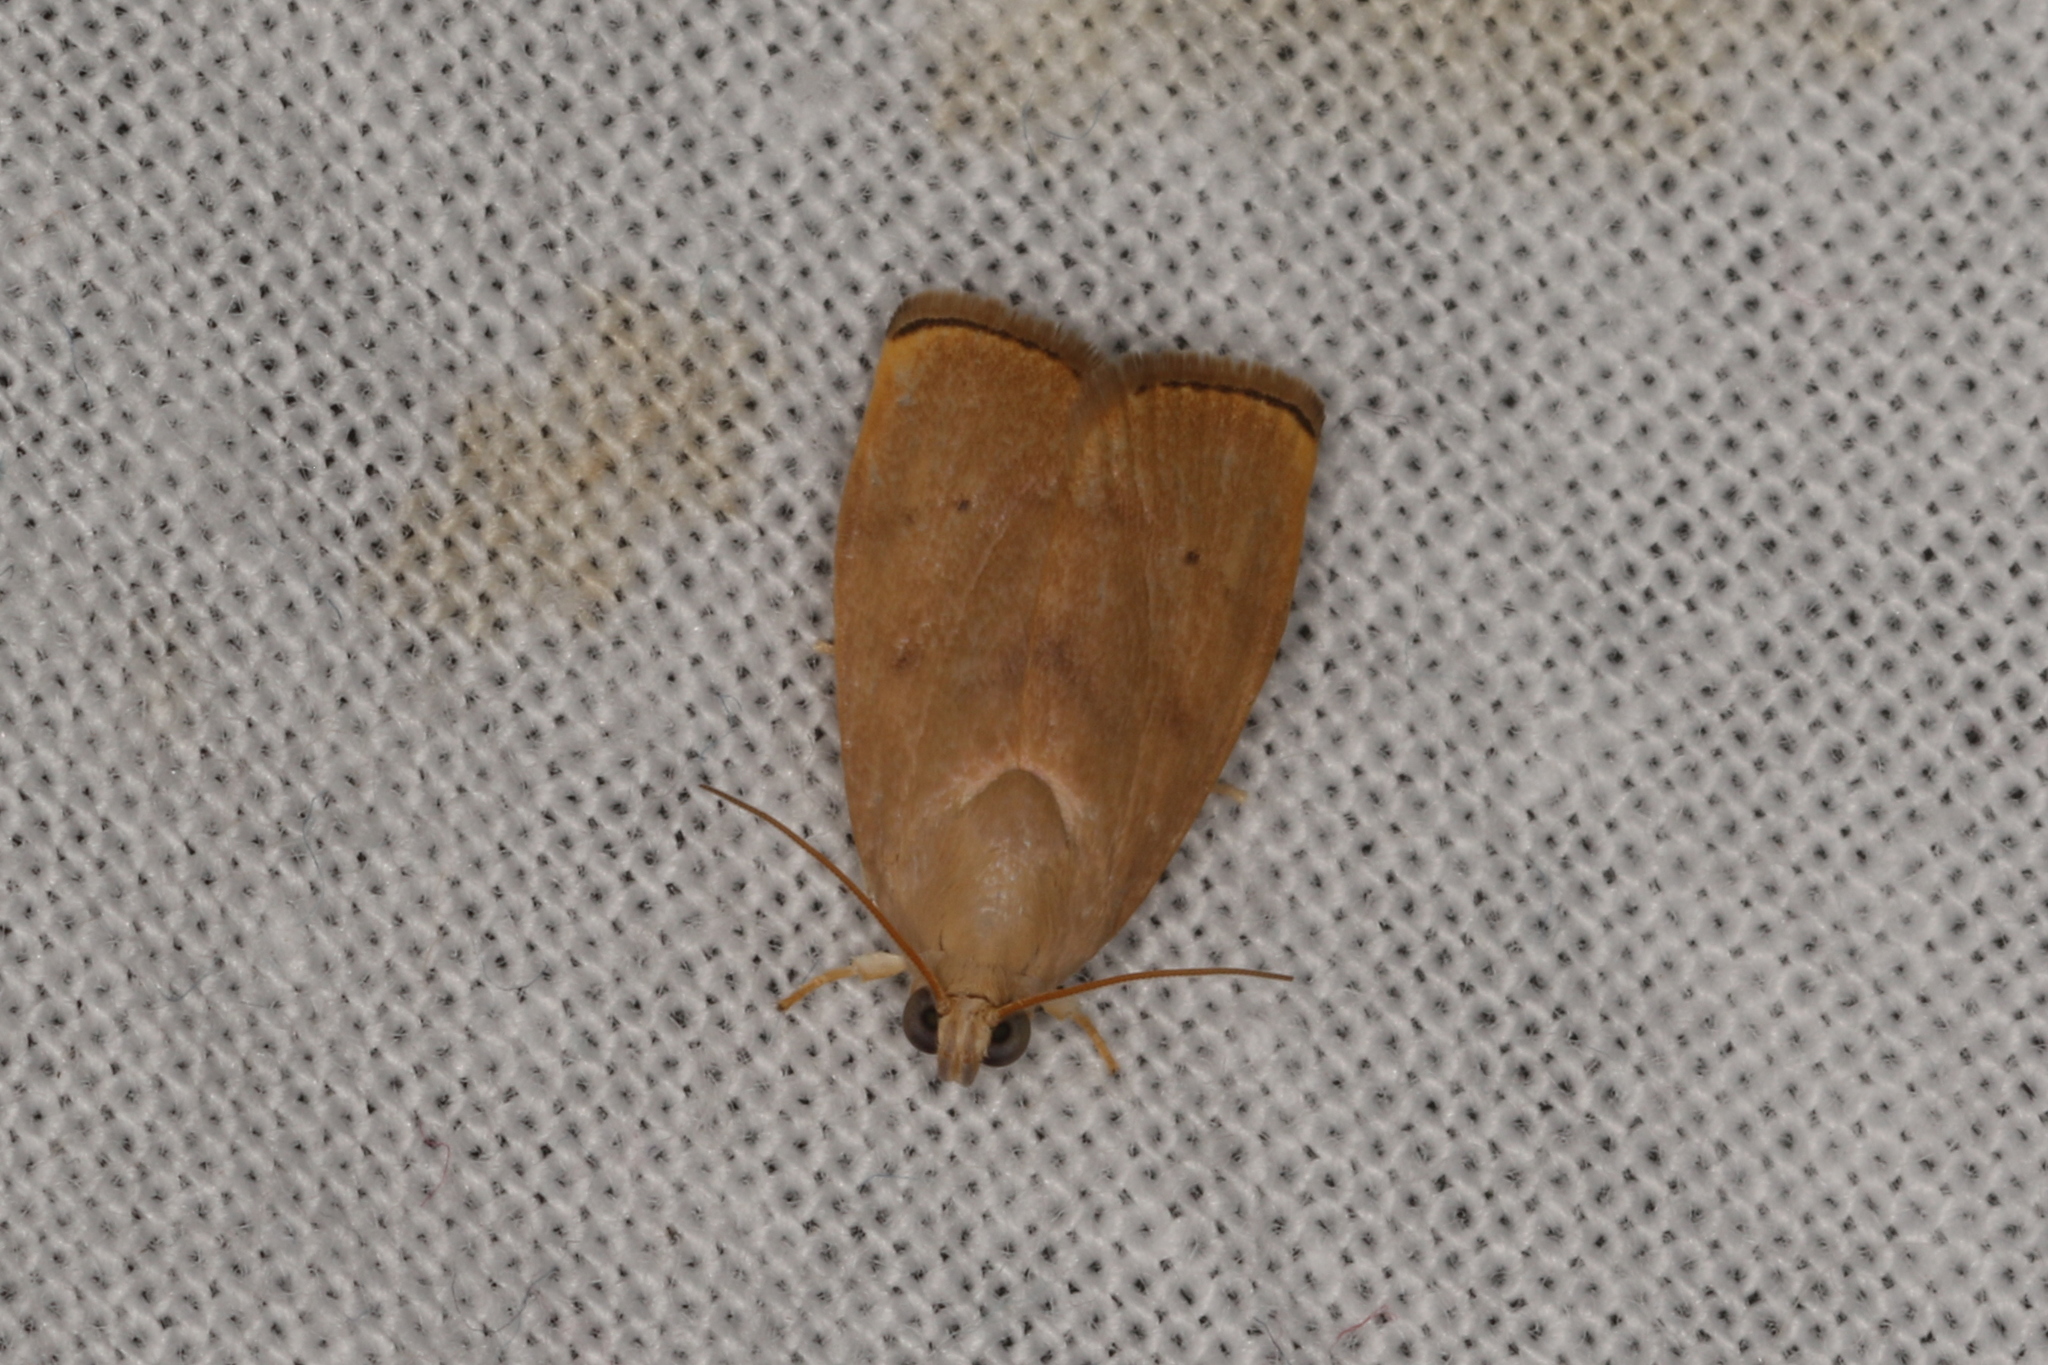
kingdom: Animalia
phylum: Arthropoda
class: Insecta
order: Lepidoptera
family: Immidae
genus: Imma
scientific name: Imma tetrascia
